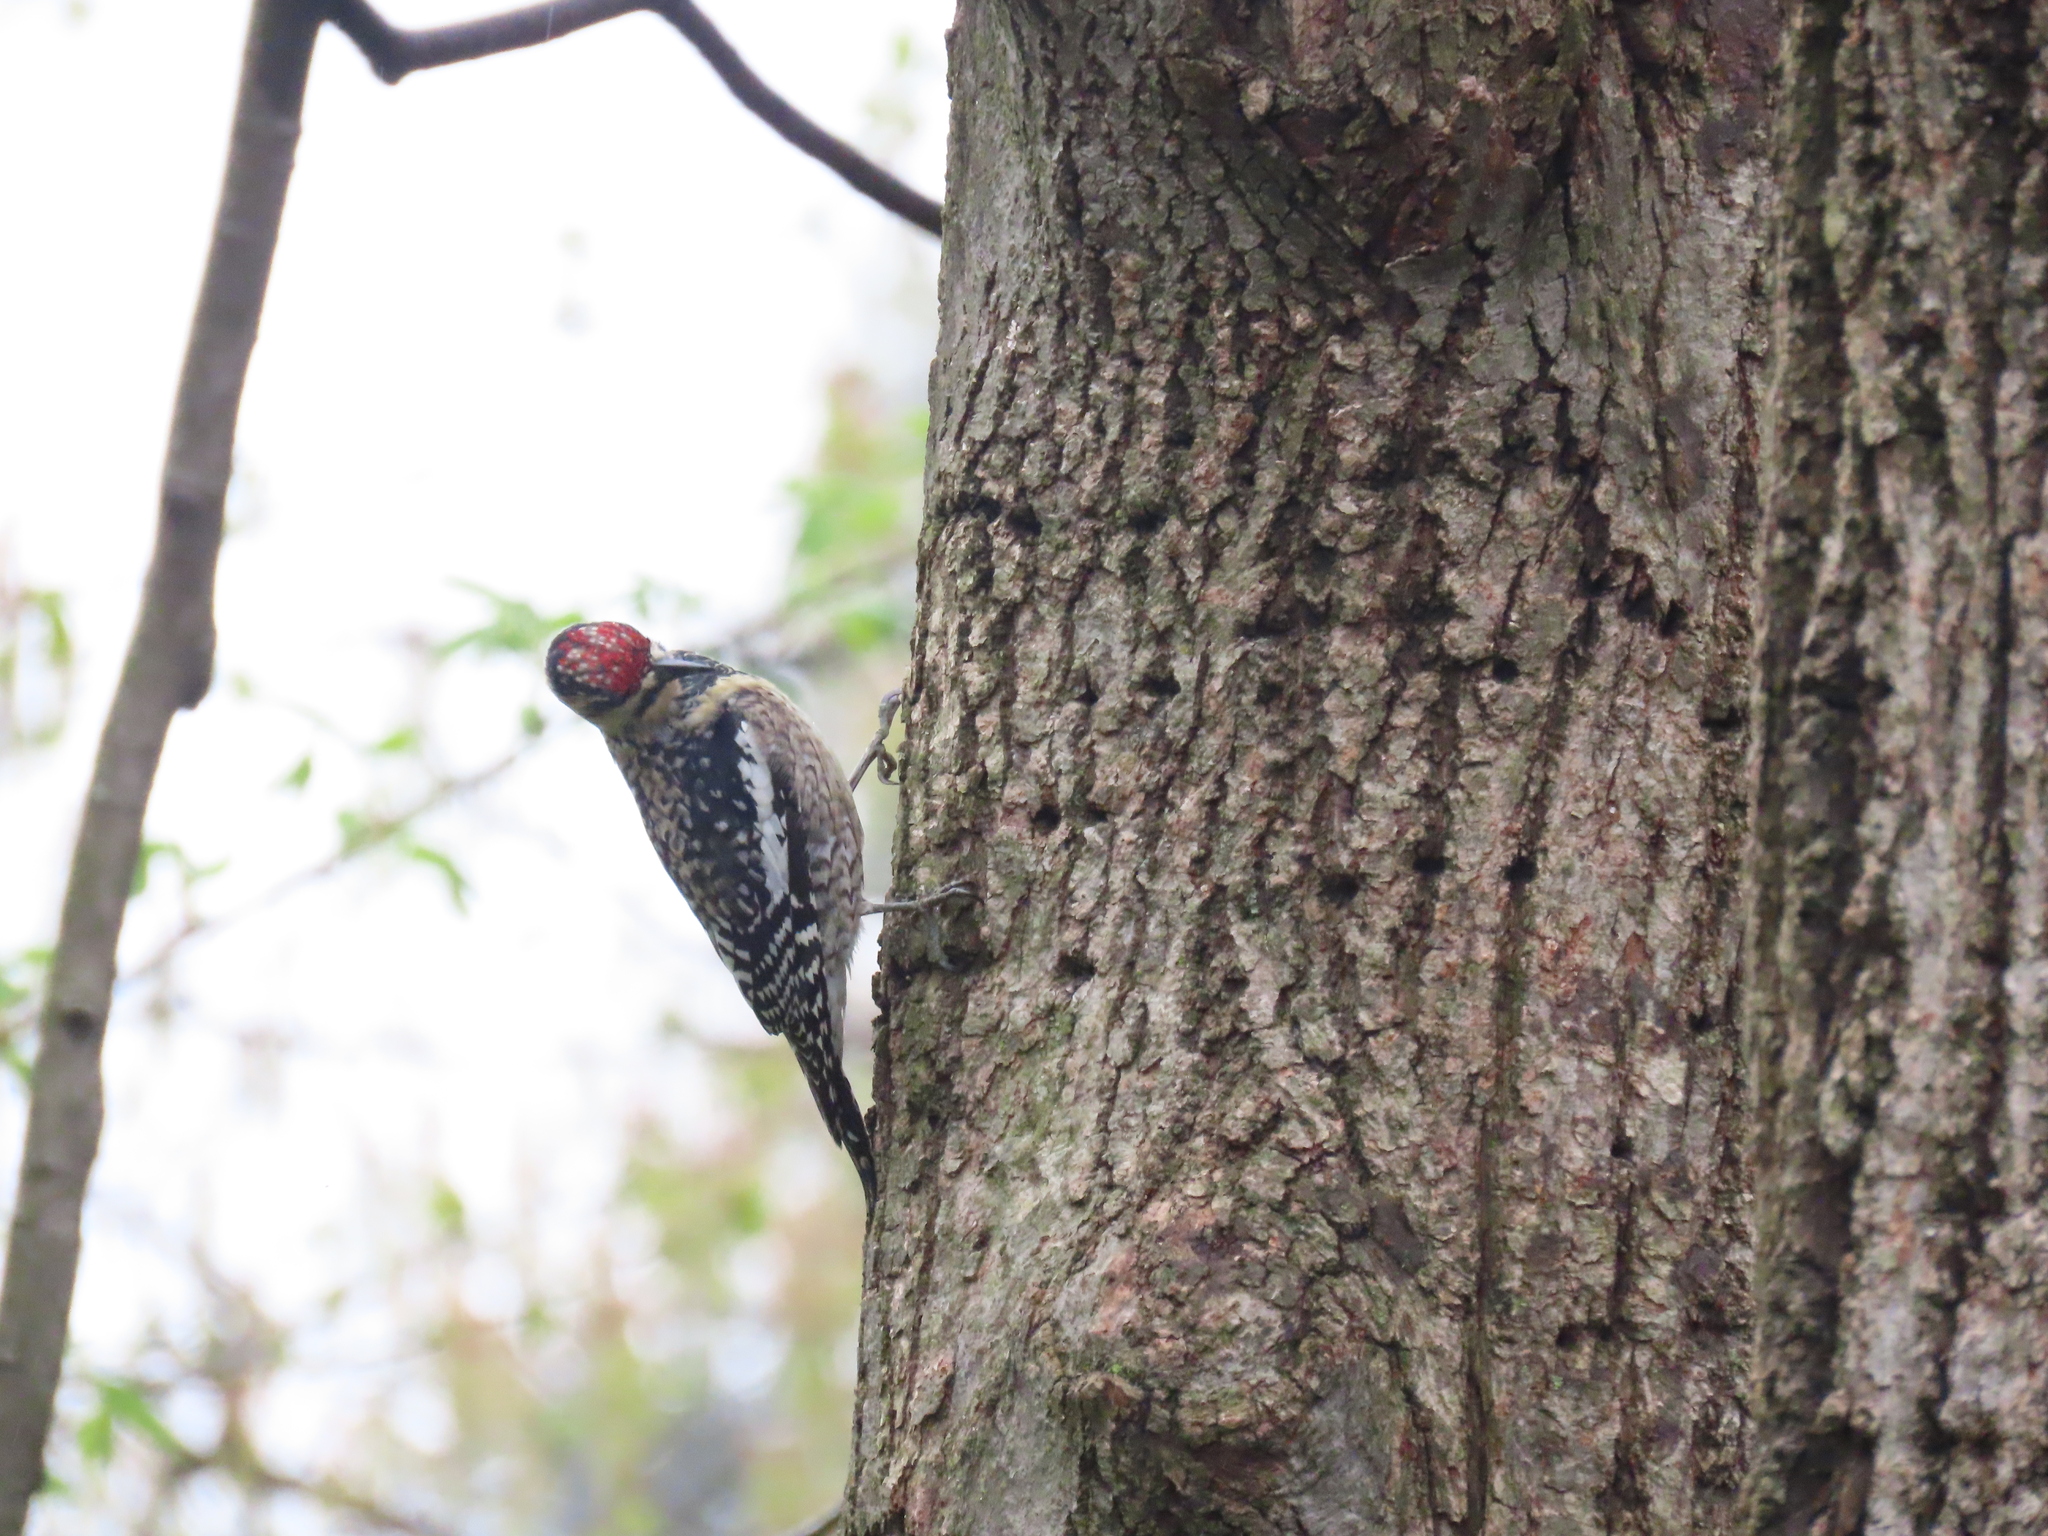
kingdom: Animalia
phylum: Chordata
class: Aves
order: Piciformes
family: Picidae
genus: Sphyrapicus
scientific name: Sphyrapicus varius
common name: Yellow-bellied sapsucker
